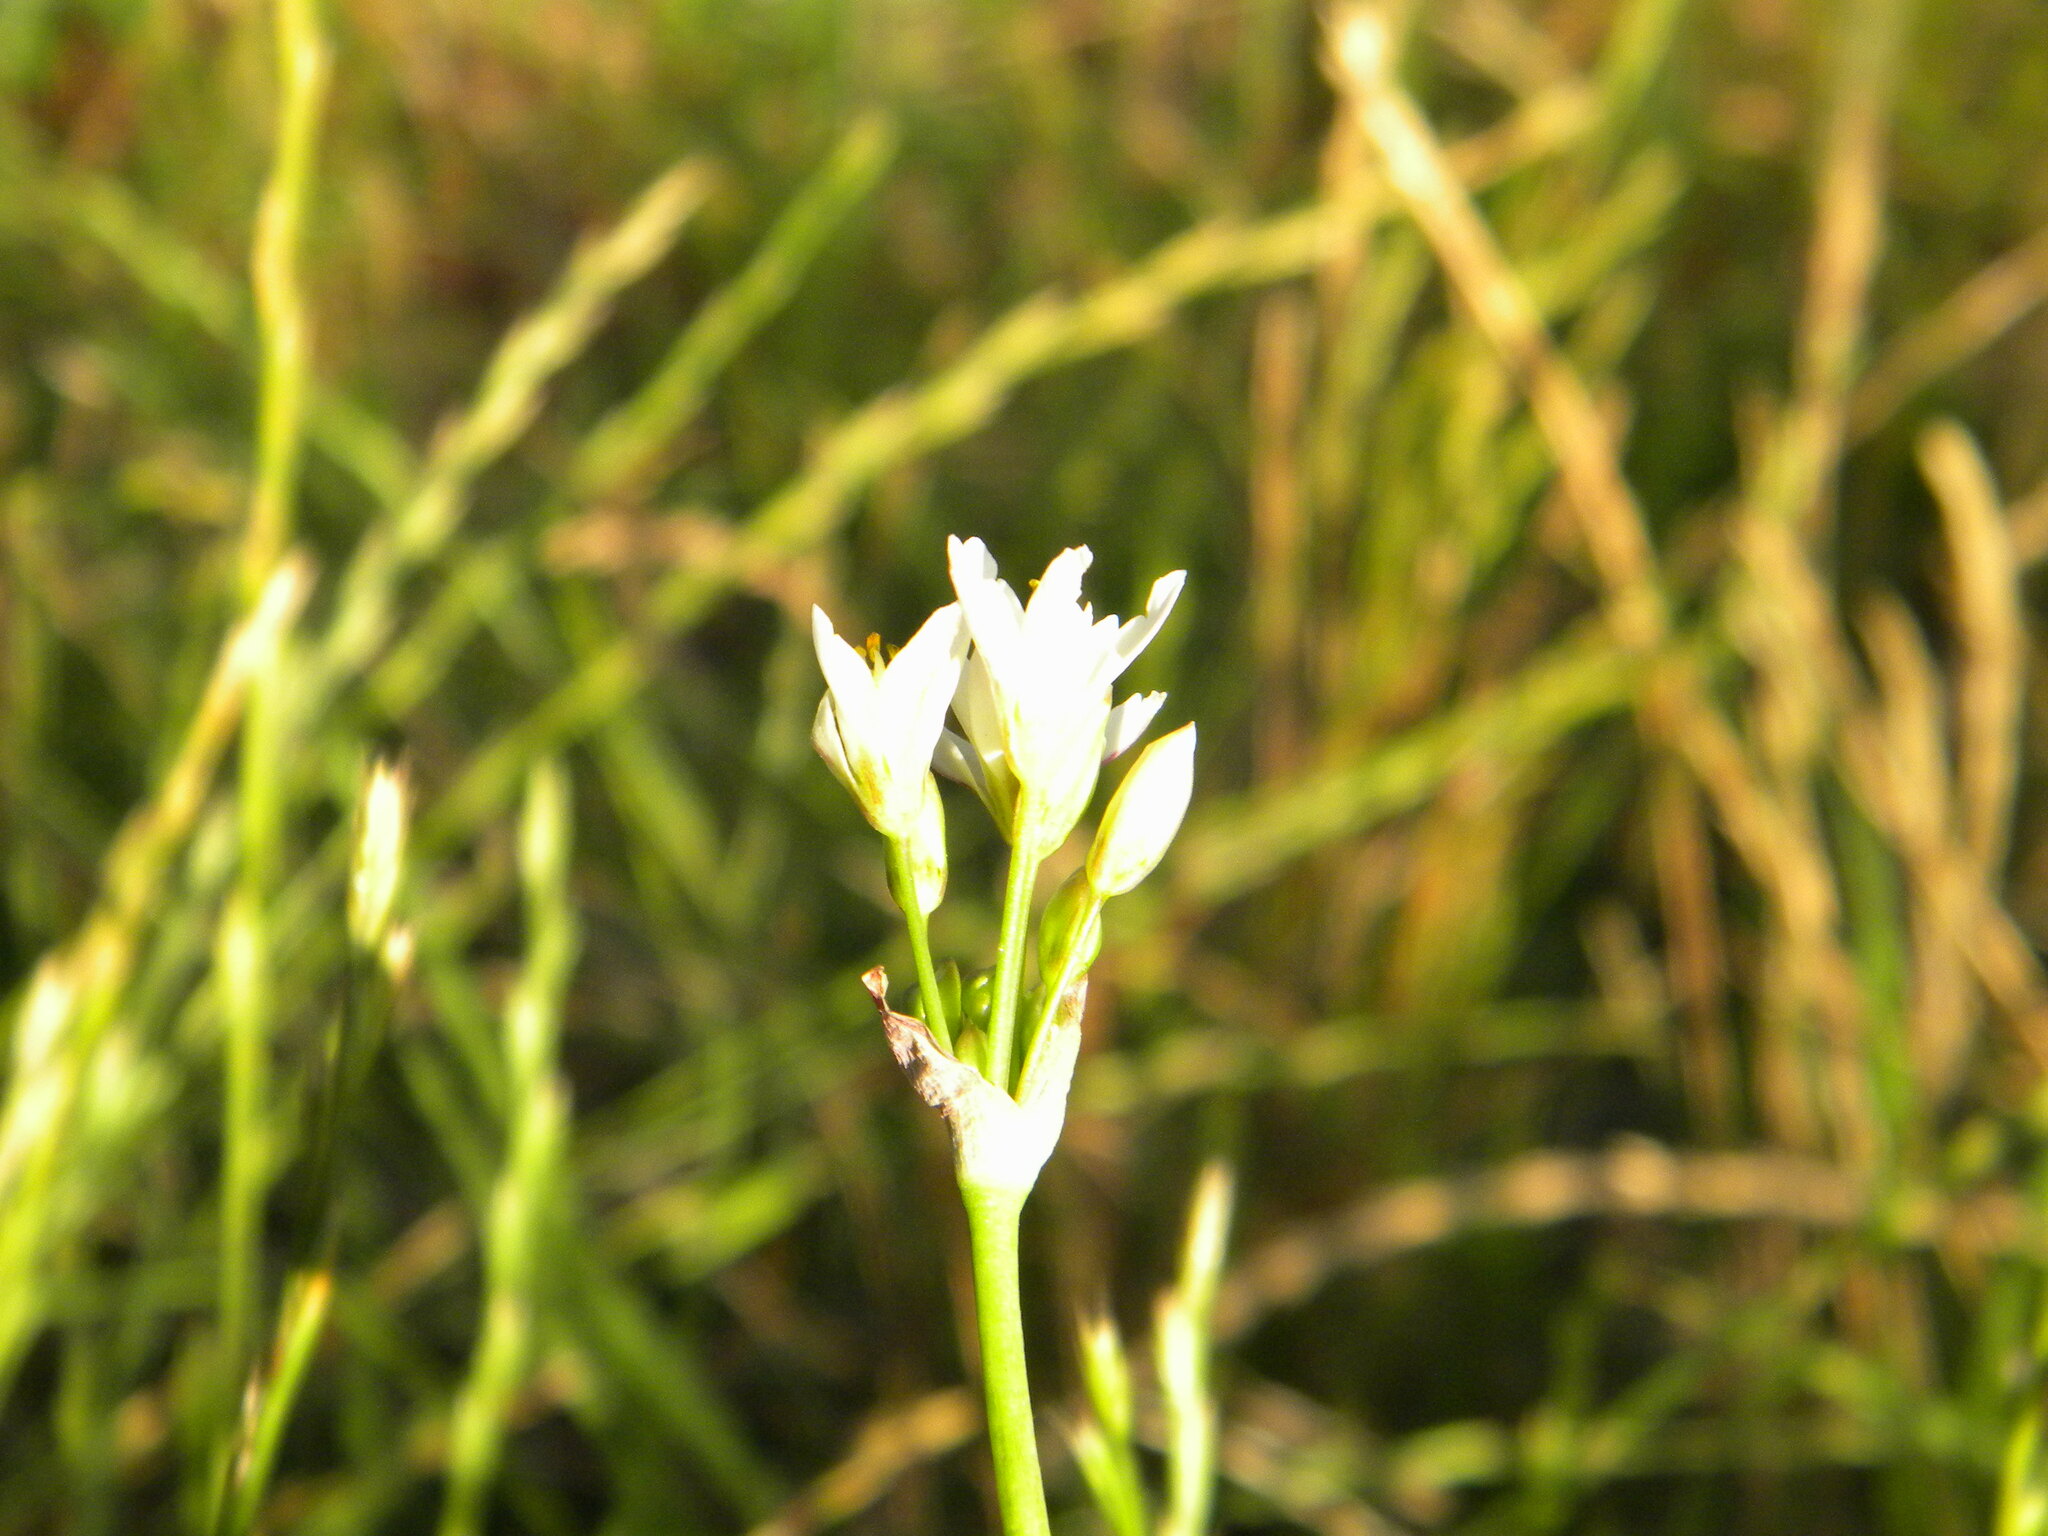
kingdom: Plantae
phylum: Tracheophyta
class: Liliopsida
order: Asparagales
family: Amaryllidaceae
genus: Nothoscordum
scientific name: Nothoscordum gracile
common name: Slender false garlic
